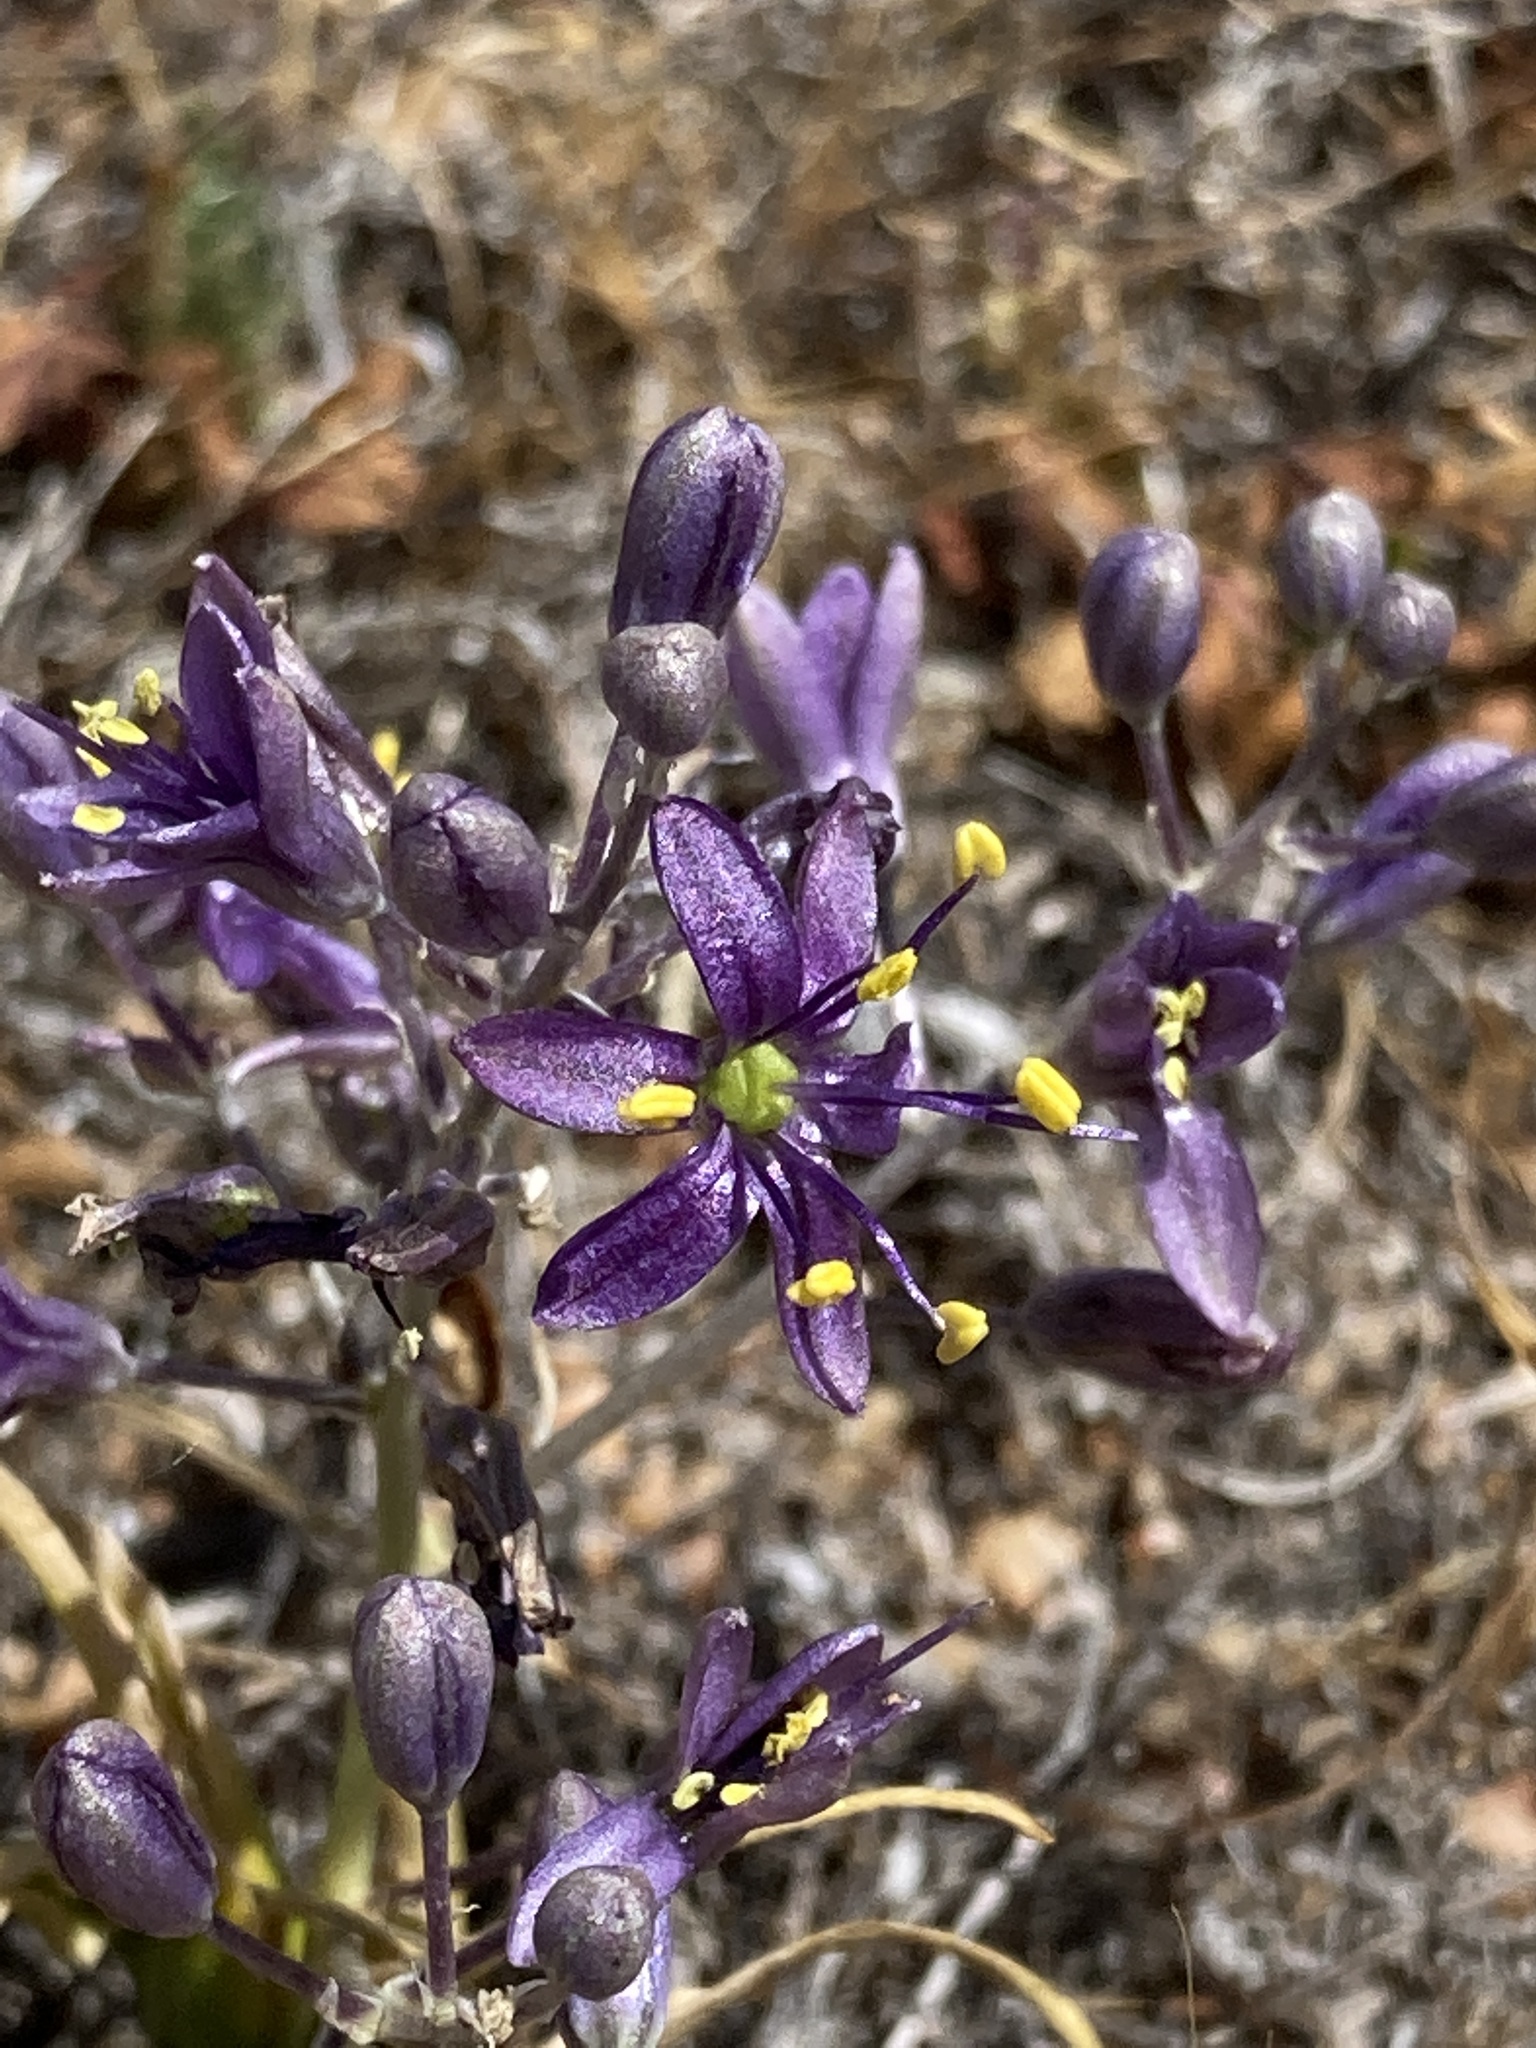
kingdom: Plantae
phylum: Tracheophyta
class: Liliopsida
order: Asparagales
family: Asparagaceae
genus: Hooveria
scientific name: Hooveria purpurea
